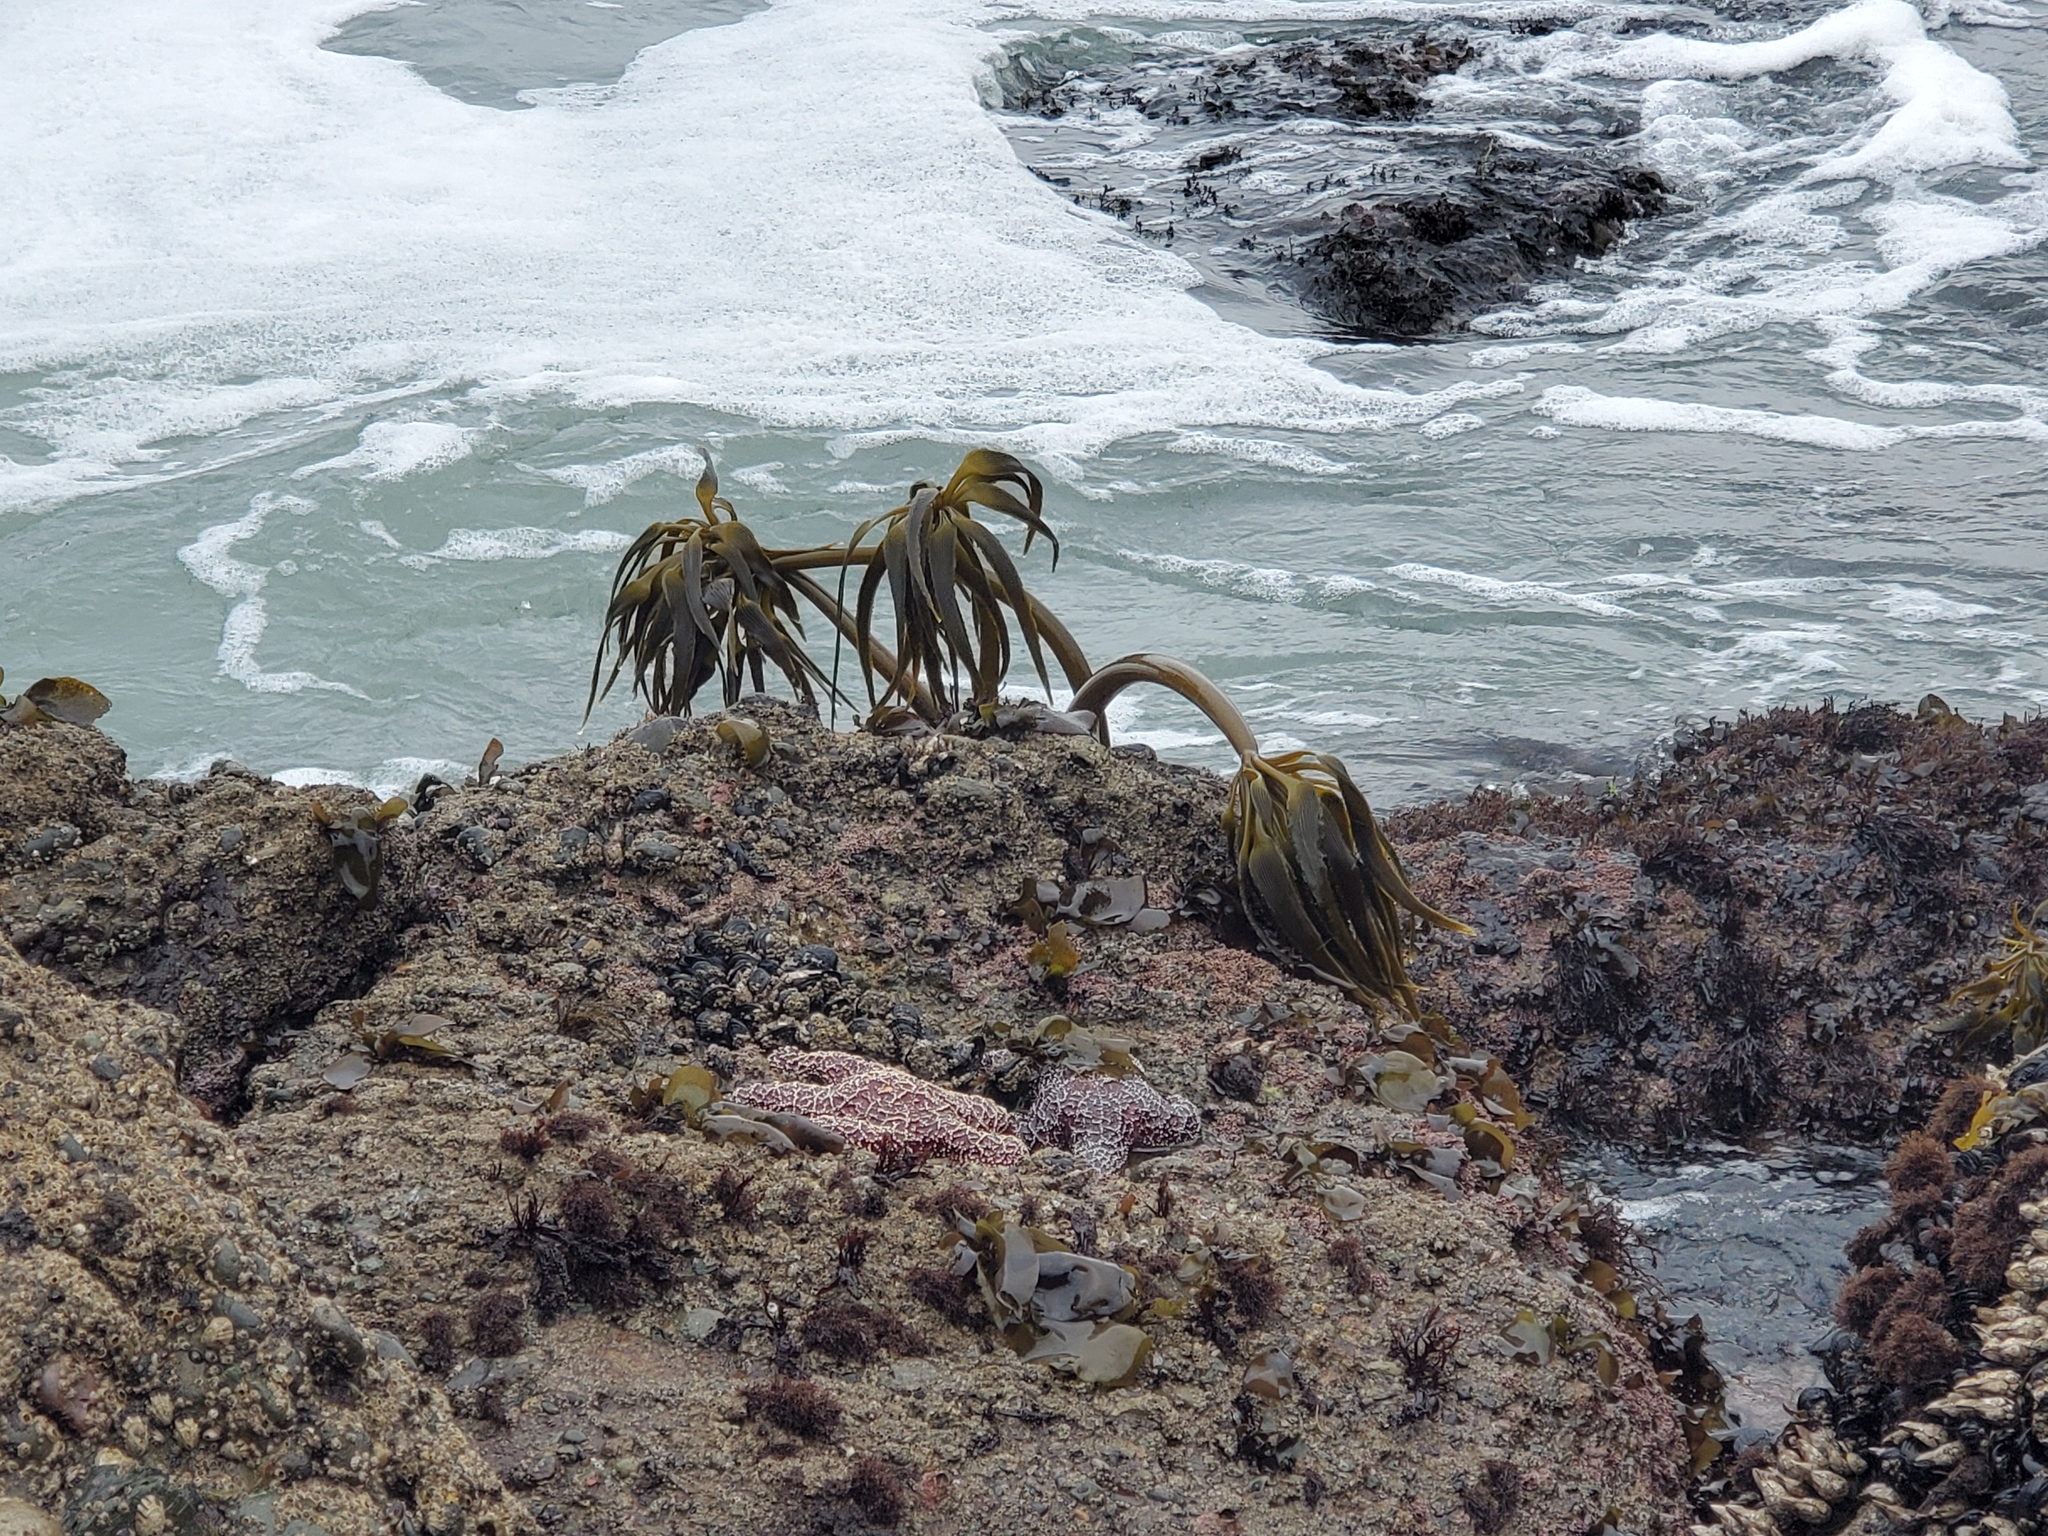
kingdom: Chromista
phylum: Ochrophyta
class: Phaeophyceae
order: Laminariales
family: Laminariaceae
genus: Postelsia
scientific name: Postelsia palmiformis
